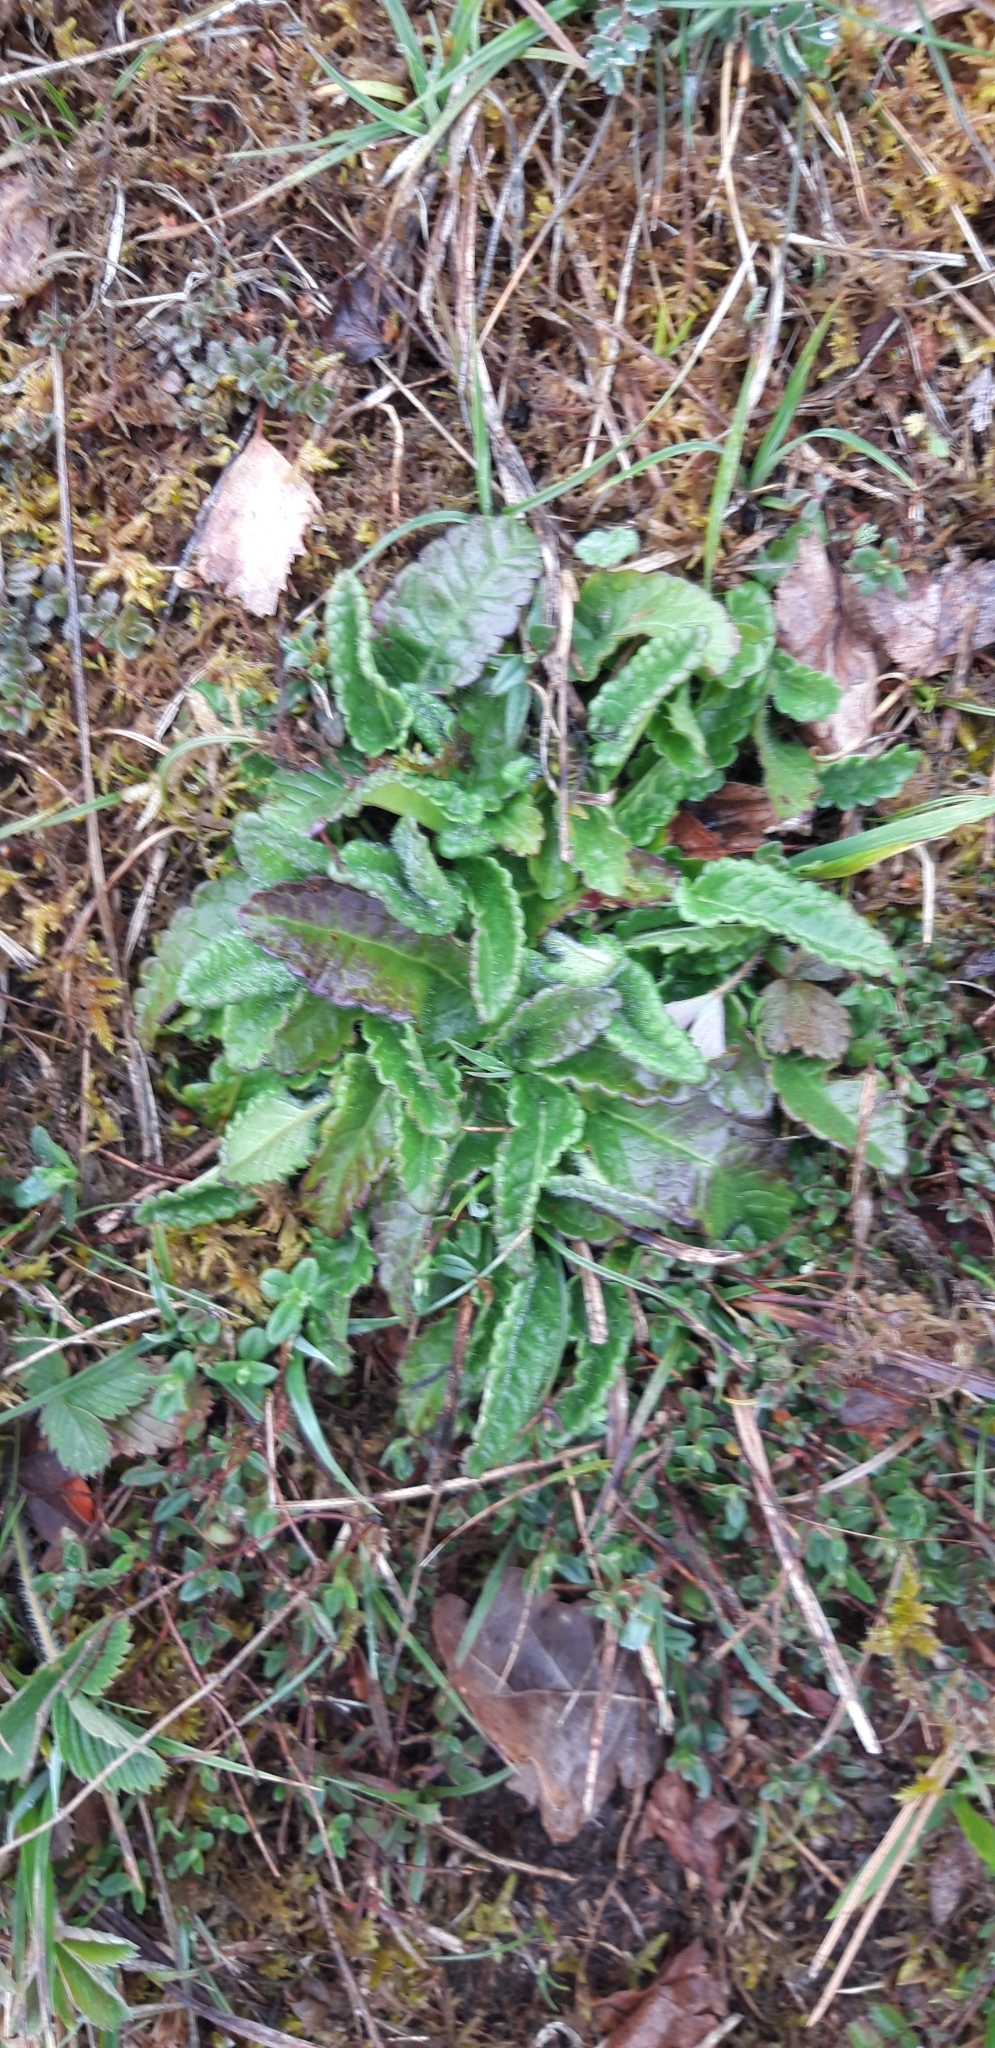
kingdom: Plantae
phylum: Tracheophyta
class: Magnoliopsida
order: Lamiales
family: Lamiaceae
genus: Betonica
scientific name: Betonica officinalis
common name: Bishop's-wort
